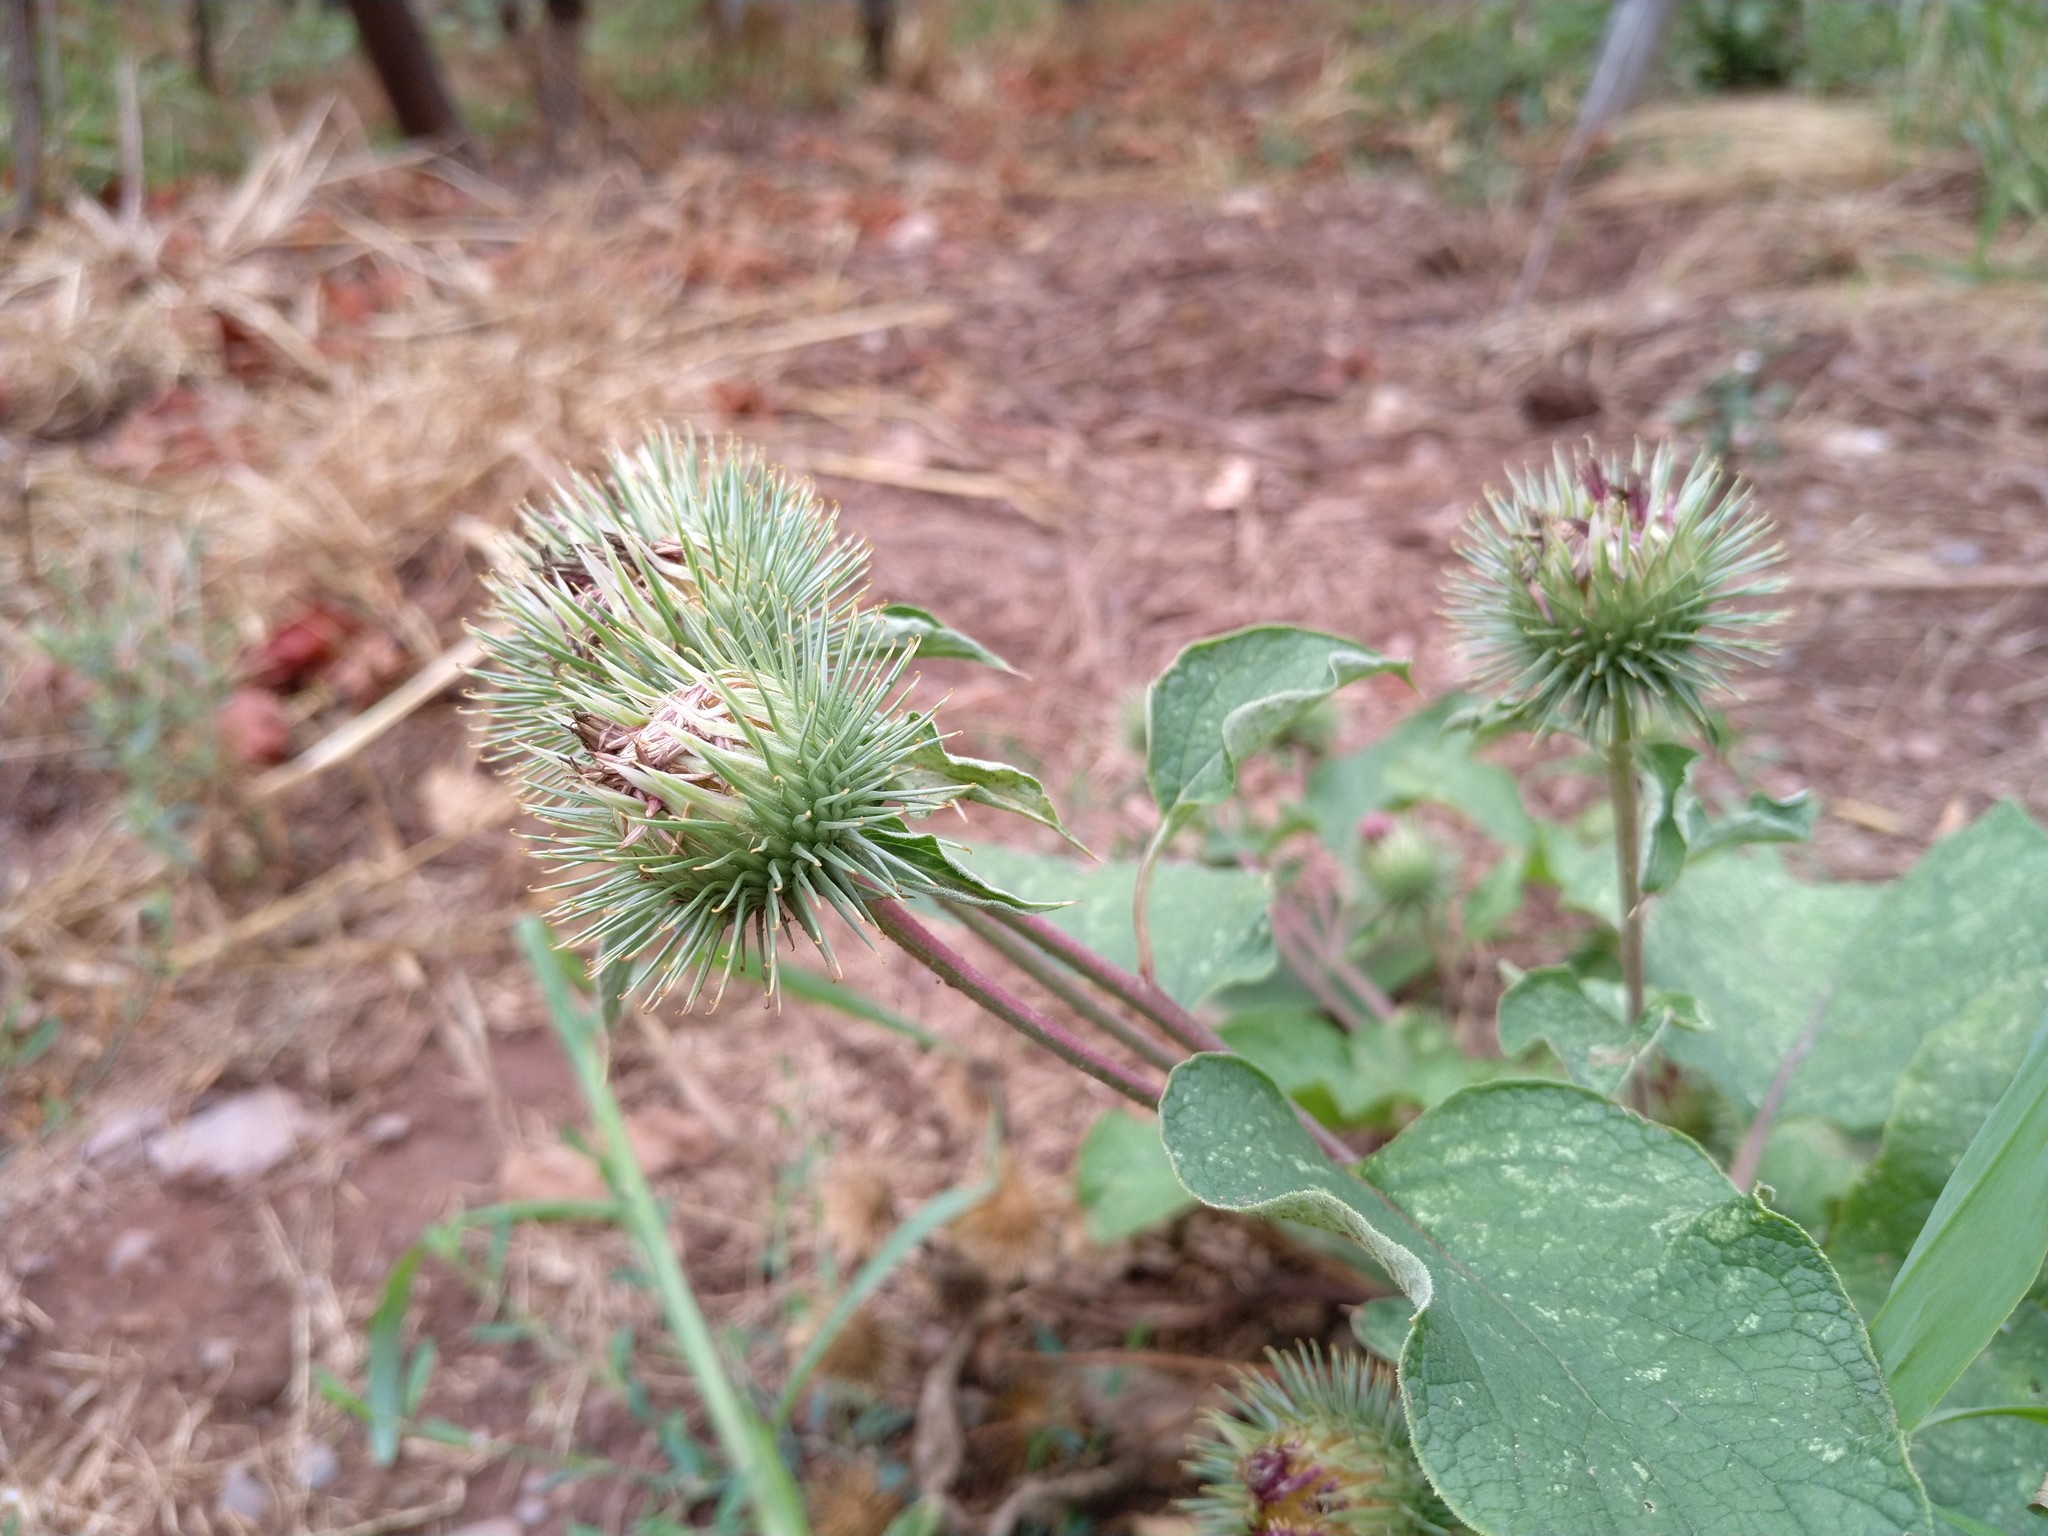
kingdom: Plantae
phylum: Tracheophyta
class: Magnoliopsida
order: Asterales
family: Asteraceae
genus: Arctium
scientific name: Arctium lappa
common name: Greater burdock
